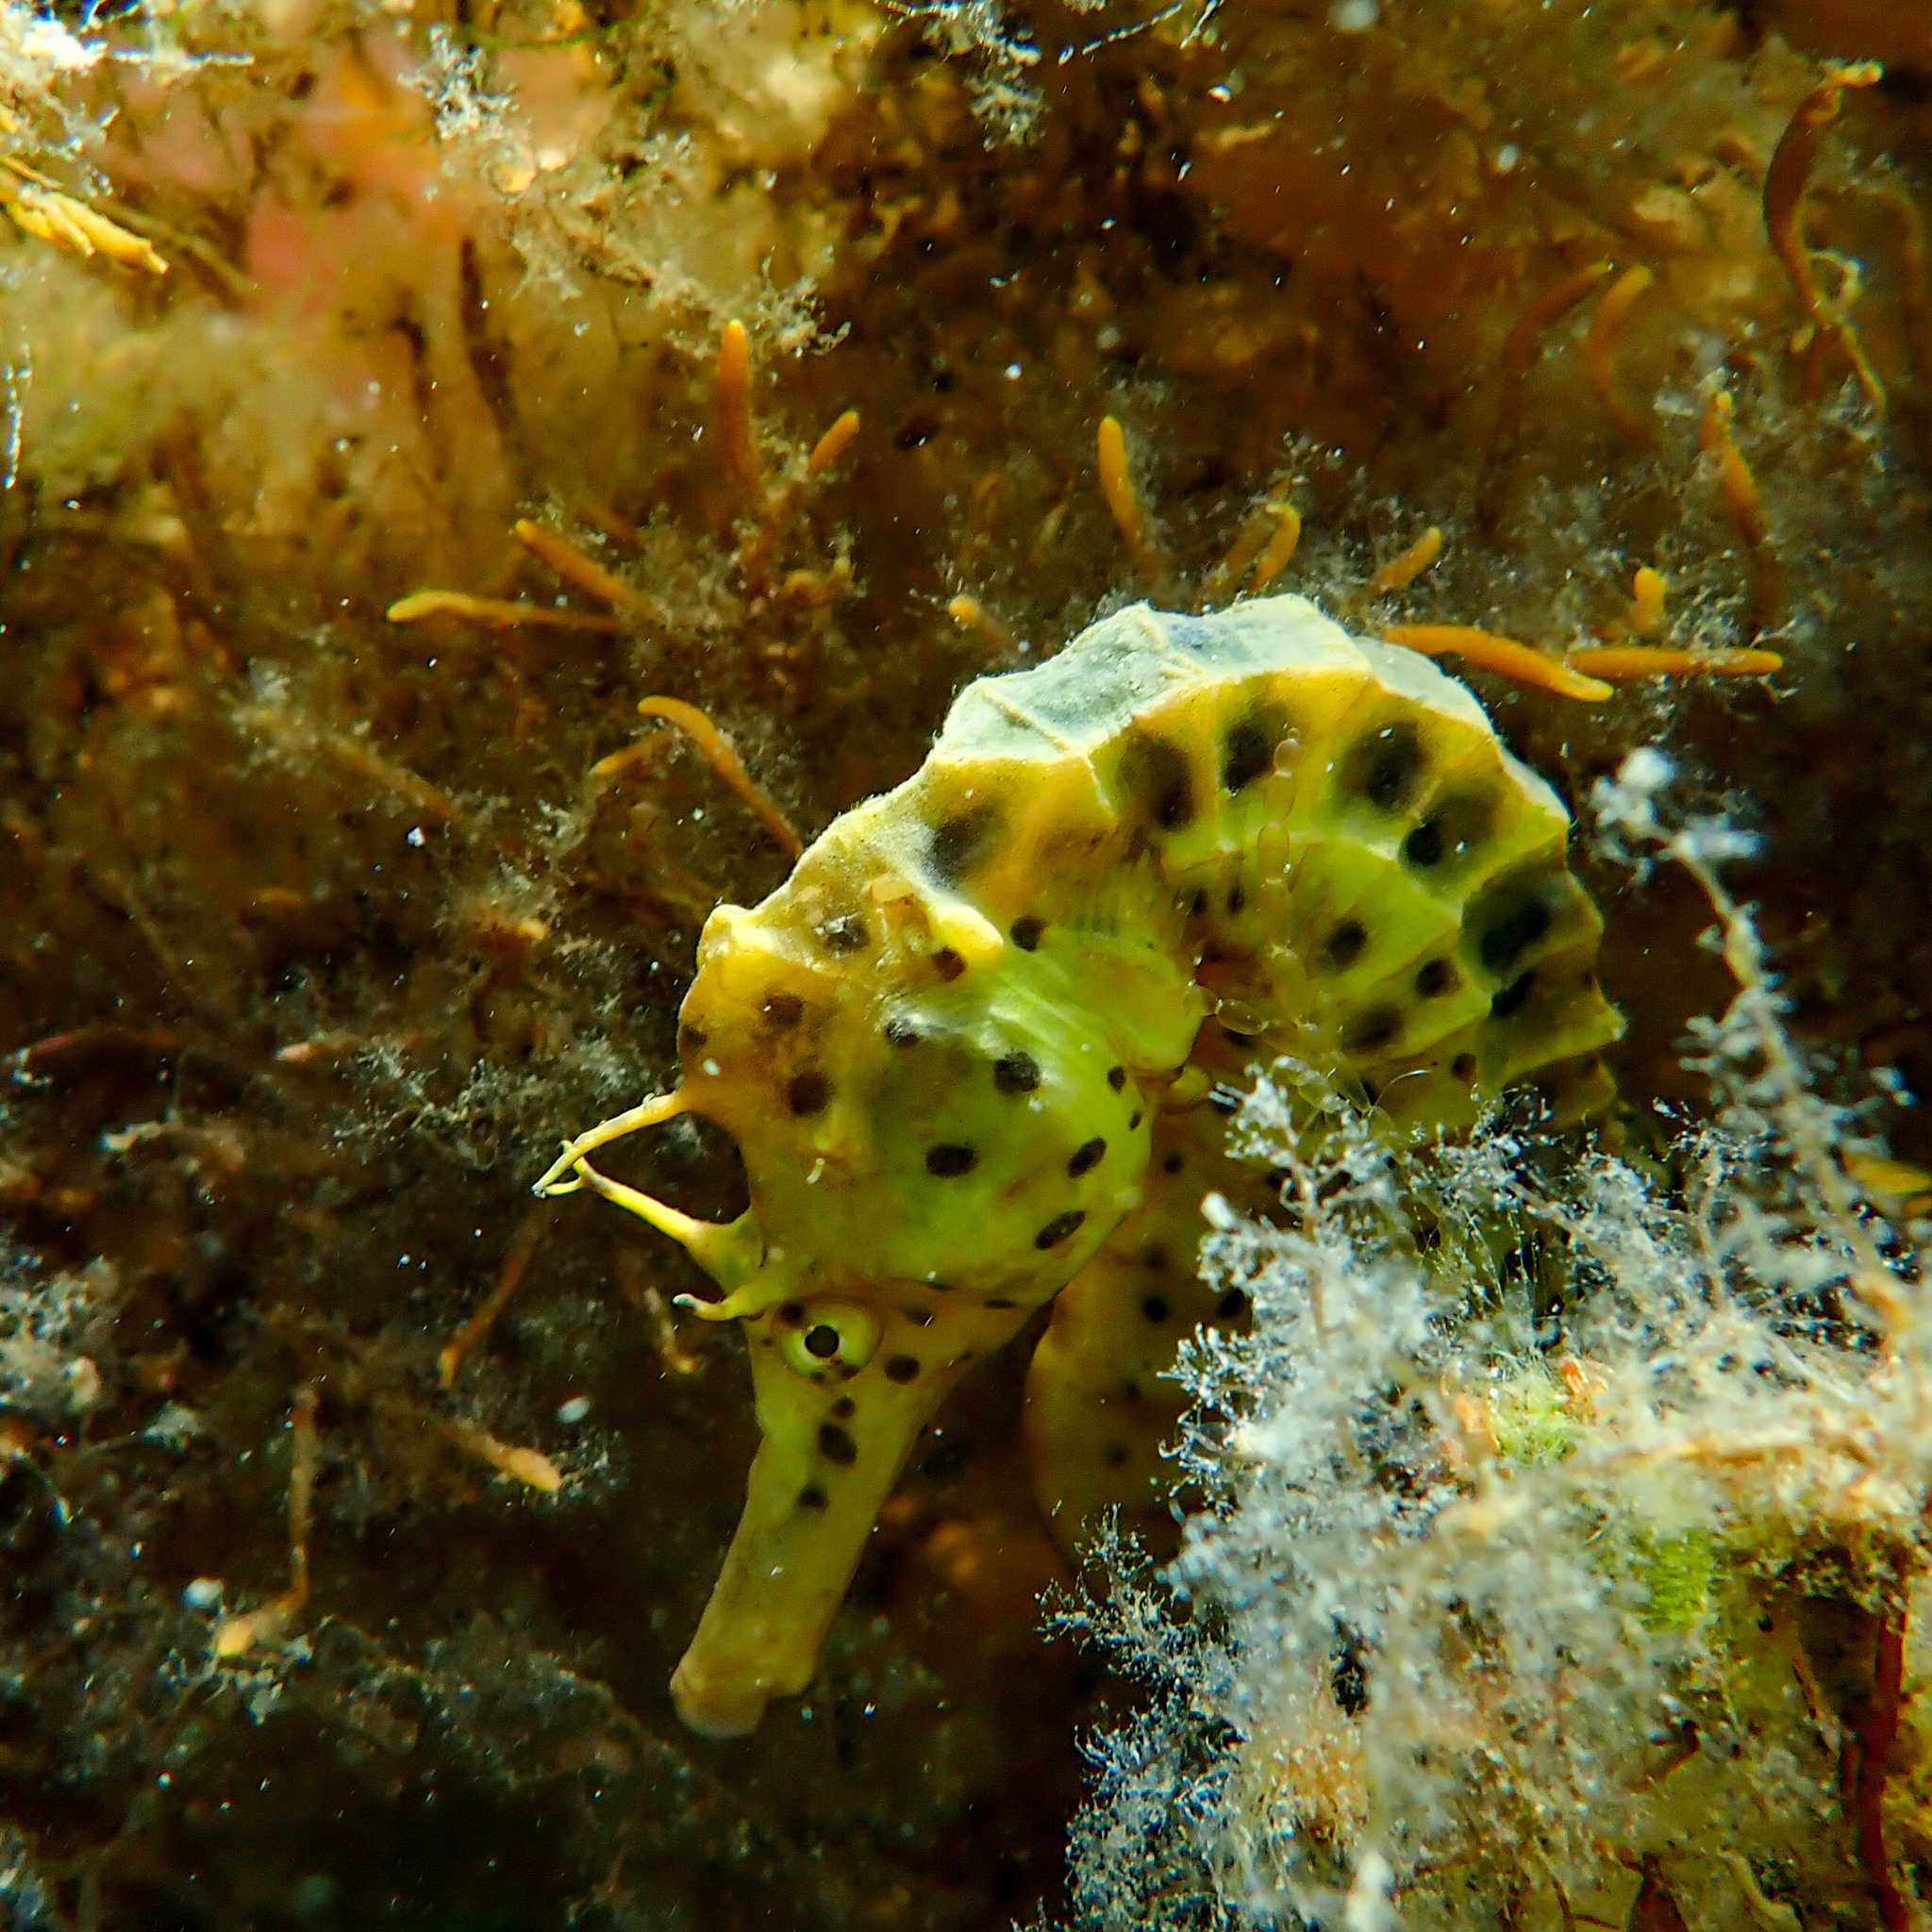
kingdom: Animalia
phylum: Chordata
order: Syngnathiformes
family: Syngnathidae
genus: Hippocampus
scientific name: Hippocampus abdominalis
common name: Big-belly seahorse
